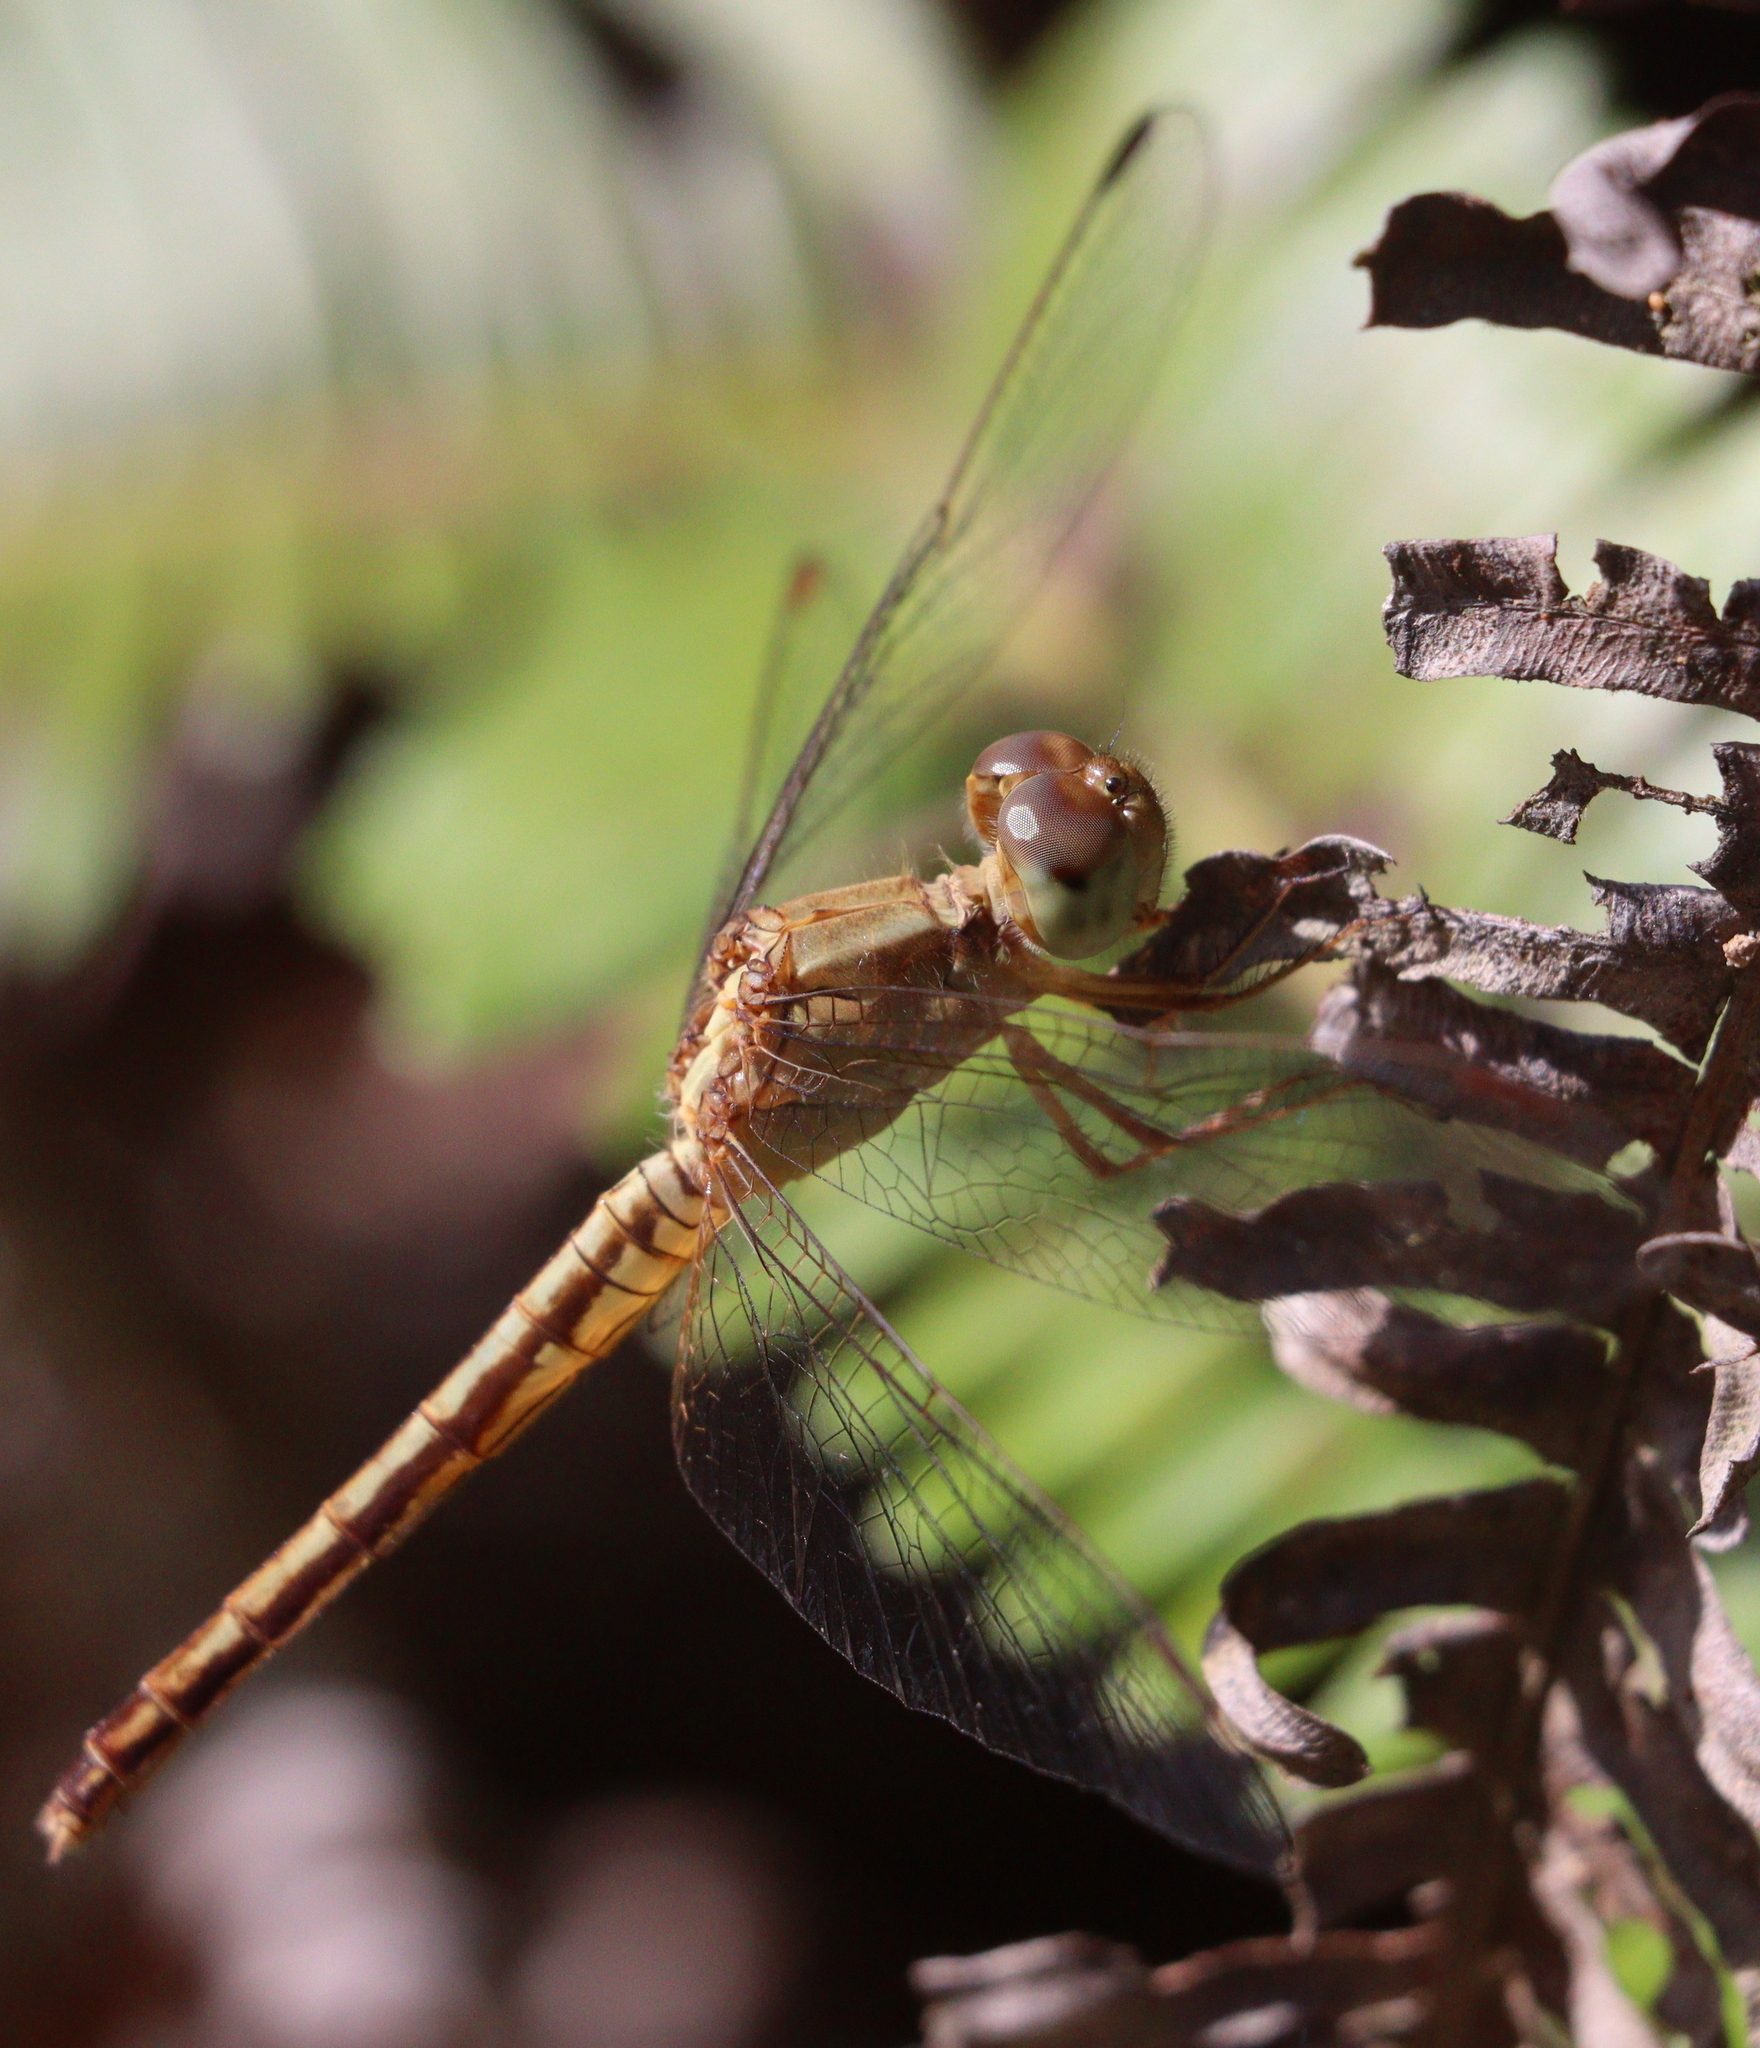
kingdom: Animalia
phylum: Arthropoda
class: Insecta
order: Odonata
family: Libellulidae
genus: Neurothemis
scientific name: Neurothemis intermedia
